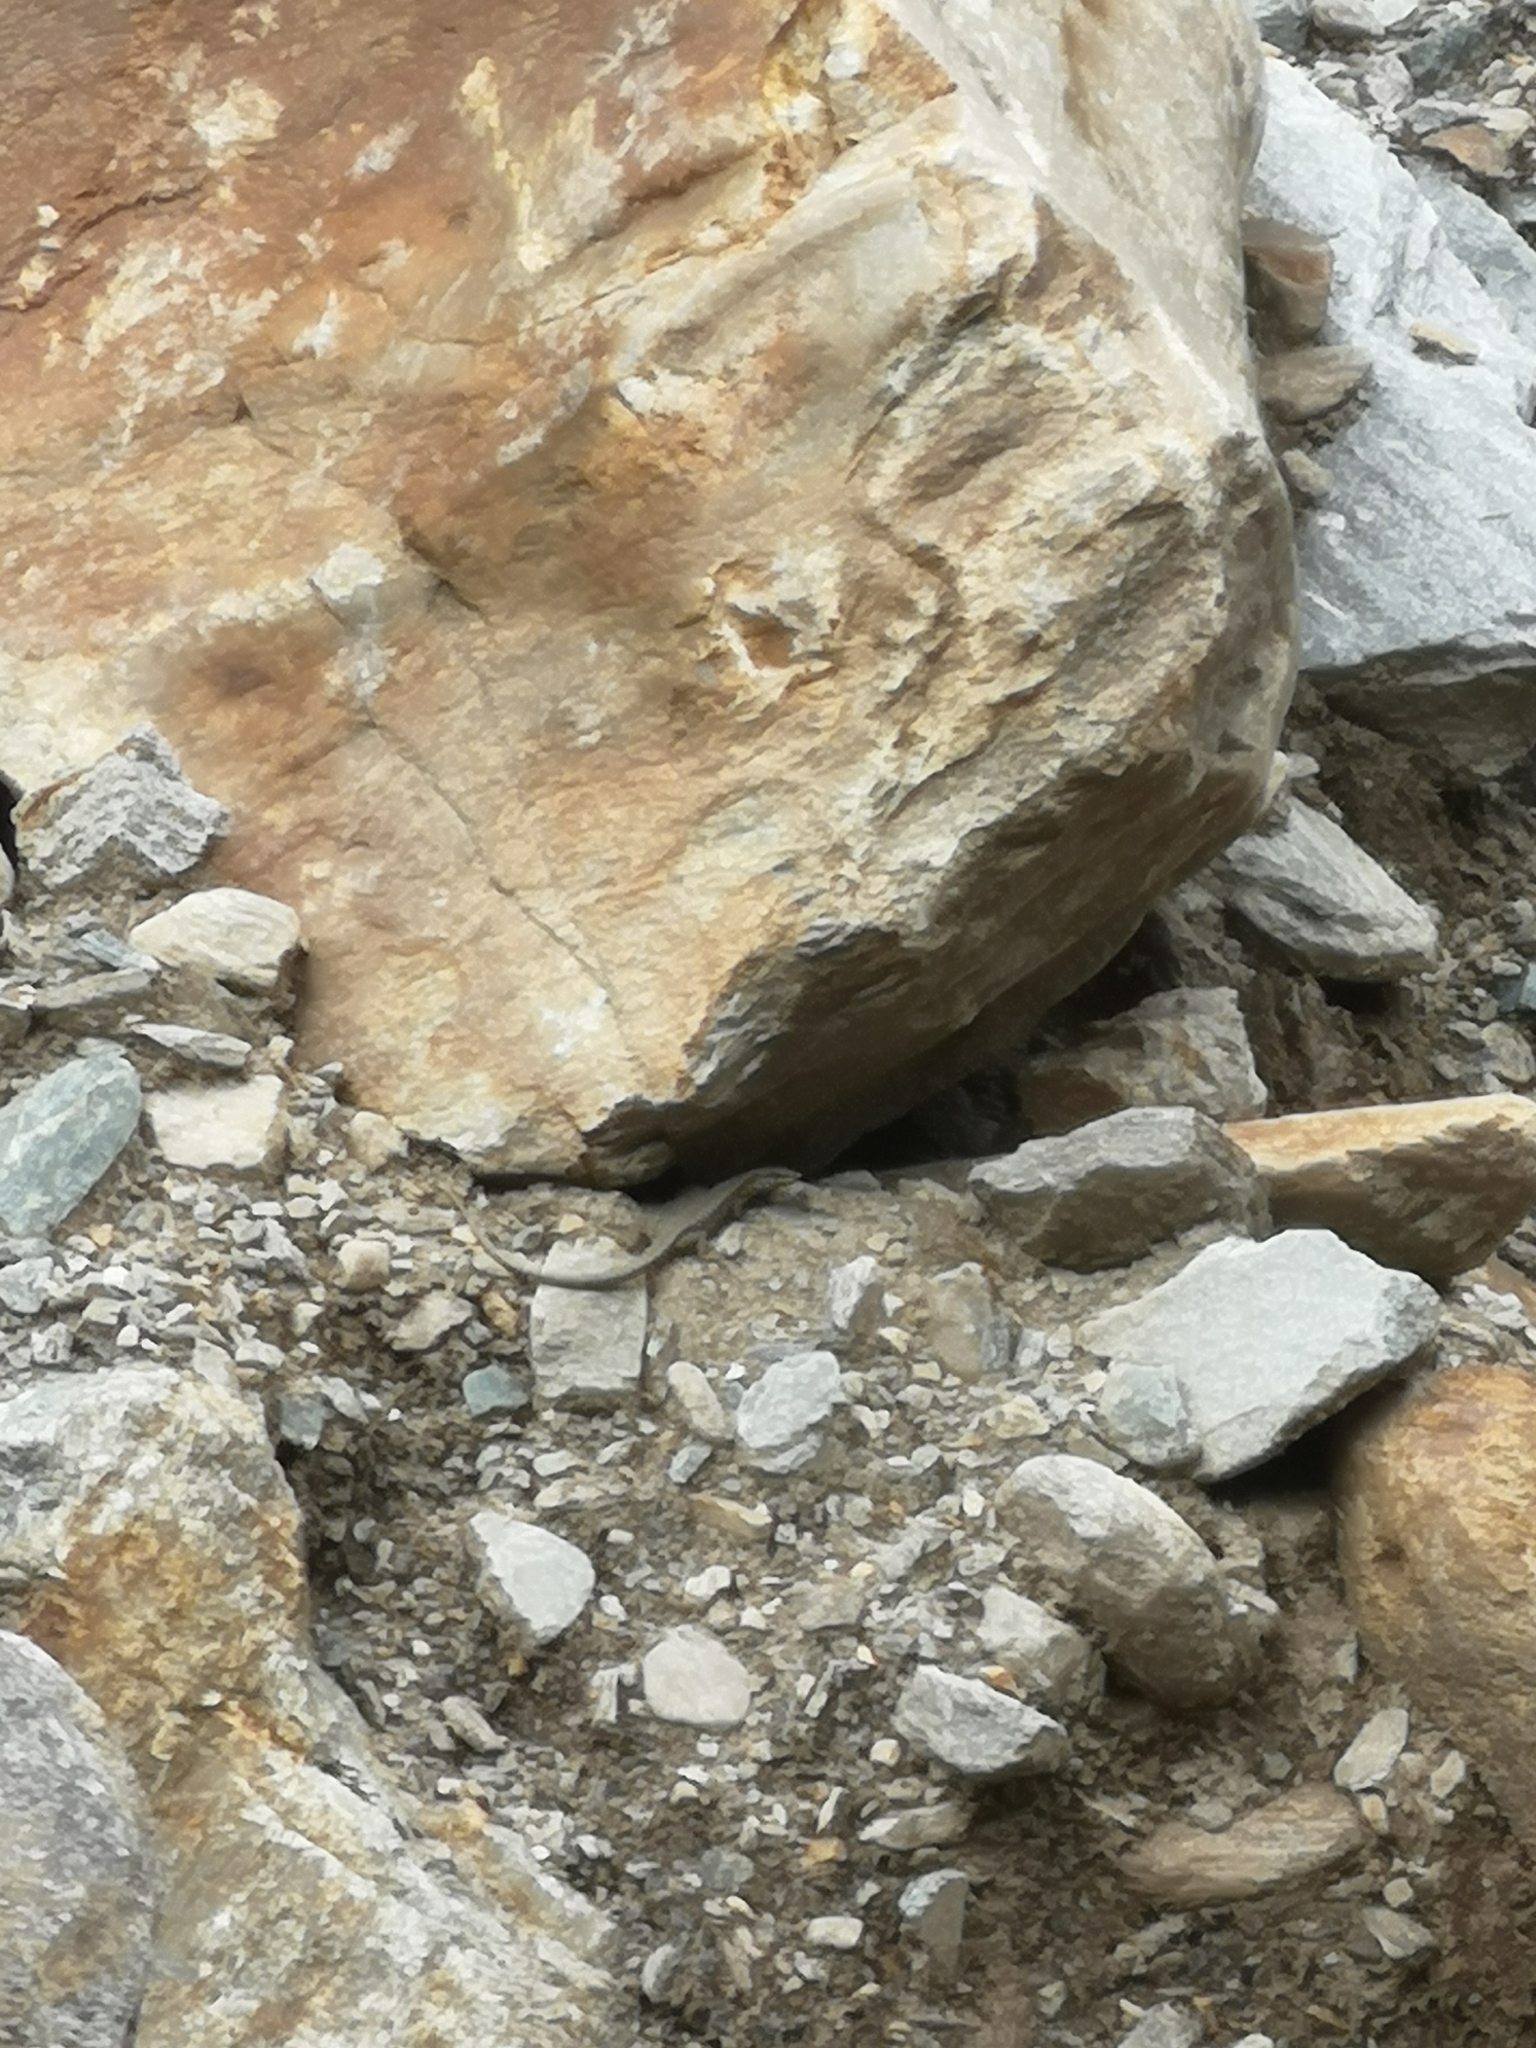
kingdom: Animalia
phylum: Chordata
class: Squamata
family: Lacertidae
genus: Podarcis
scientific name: Podarcis muralis
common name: Common wall lizard
